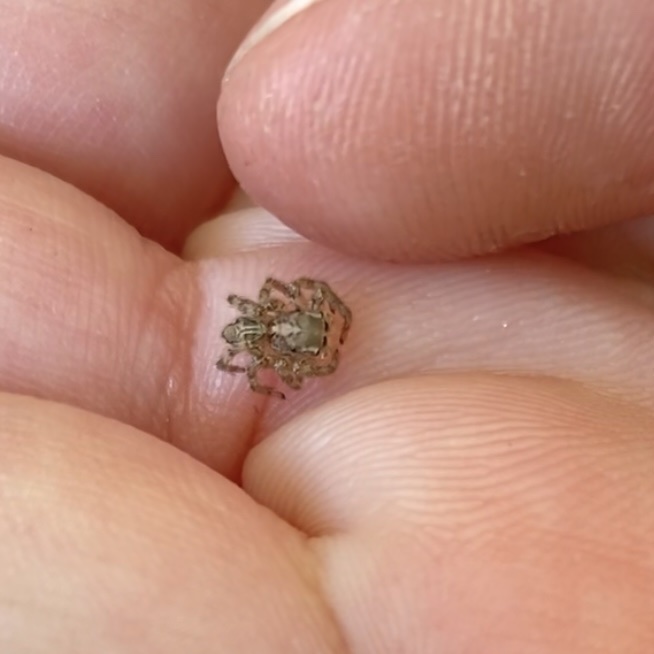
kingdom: Animalia
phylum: Arthropoda
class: Arachnida
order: Araneae
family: Salticidae
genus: Plexippus
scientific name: Plexippus paykulli
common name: Pantropical jumper
